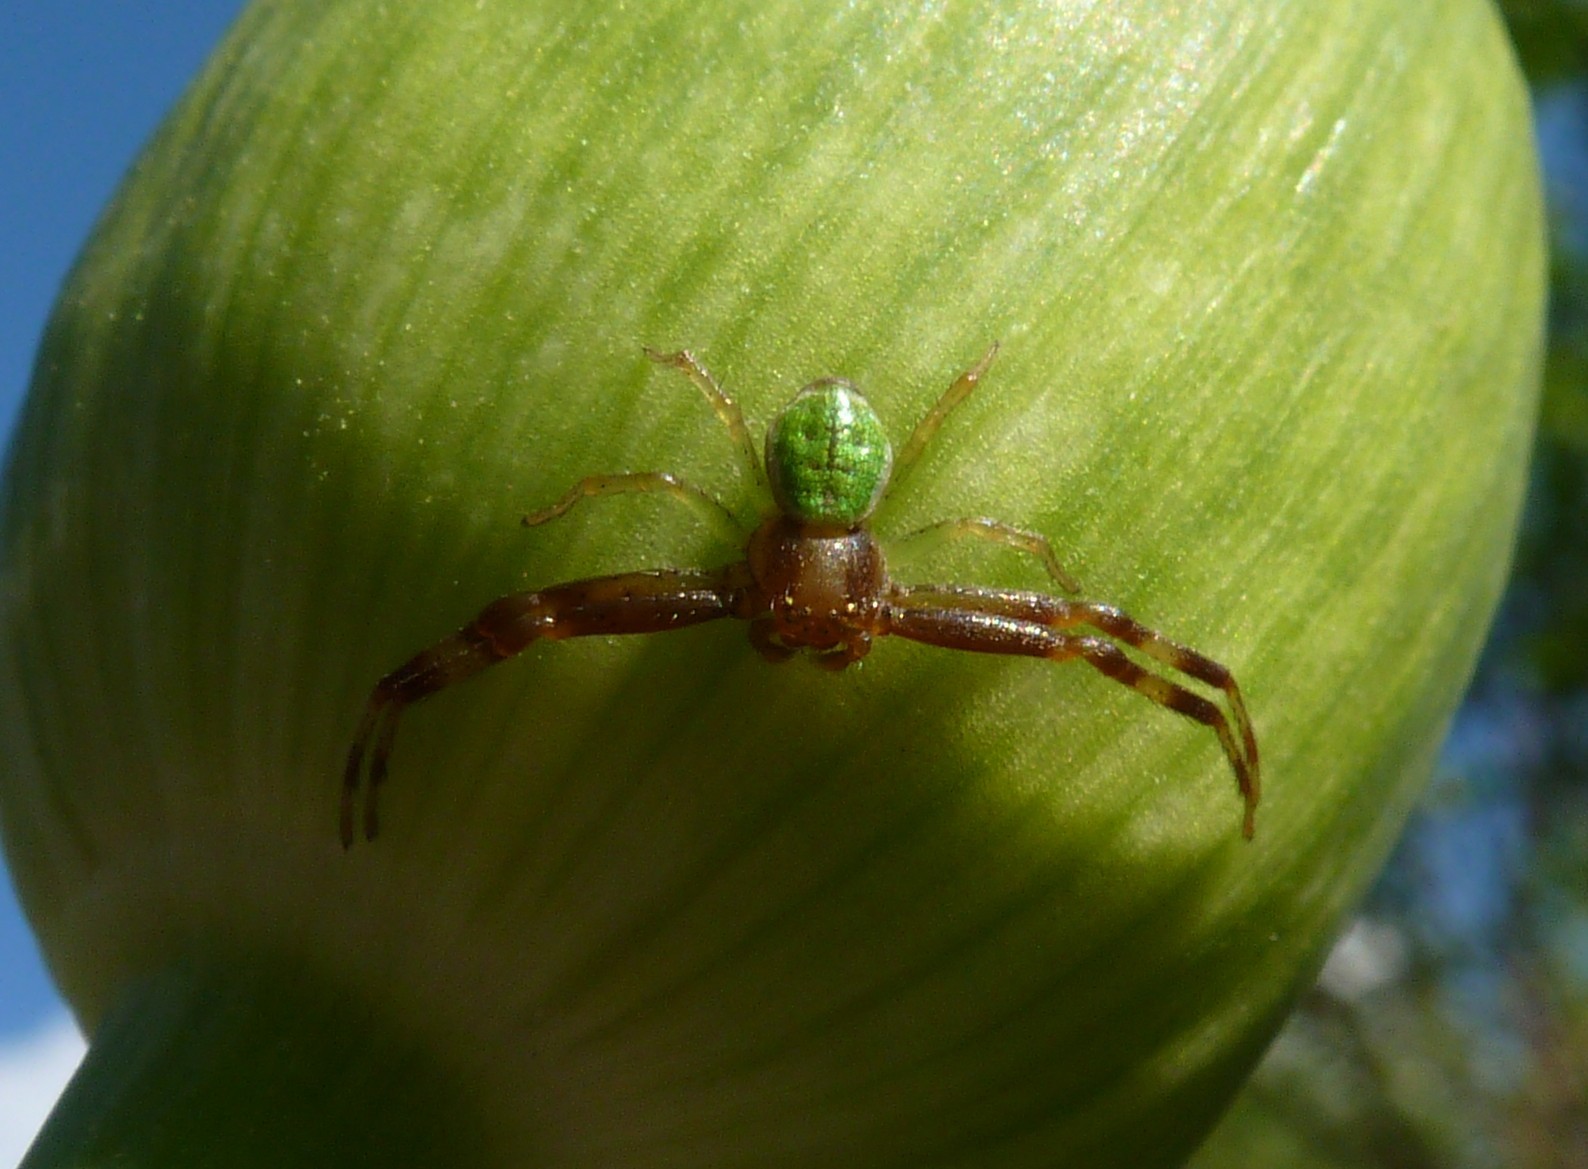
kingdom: Animalia
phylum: Arthropoda
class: Arachnida
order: Araneae
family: Thomisidae
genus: Ebrechtella
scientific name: Ebrechtella tricuspidata
